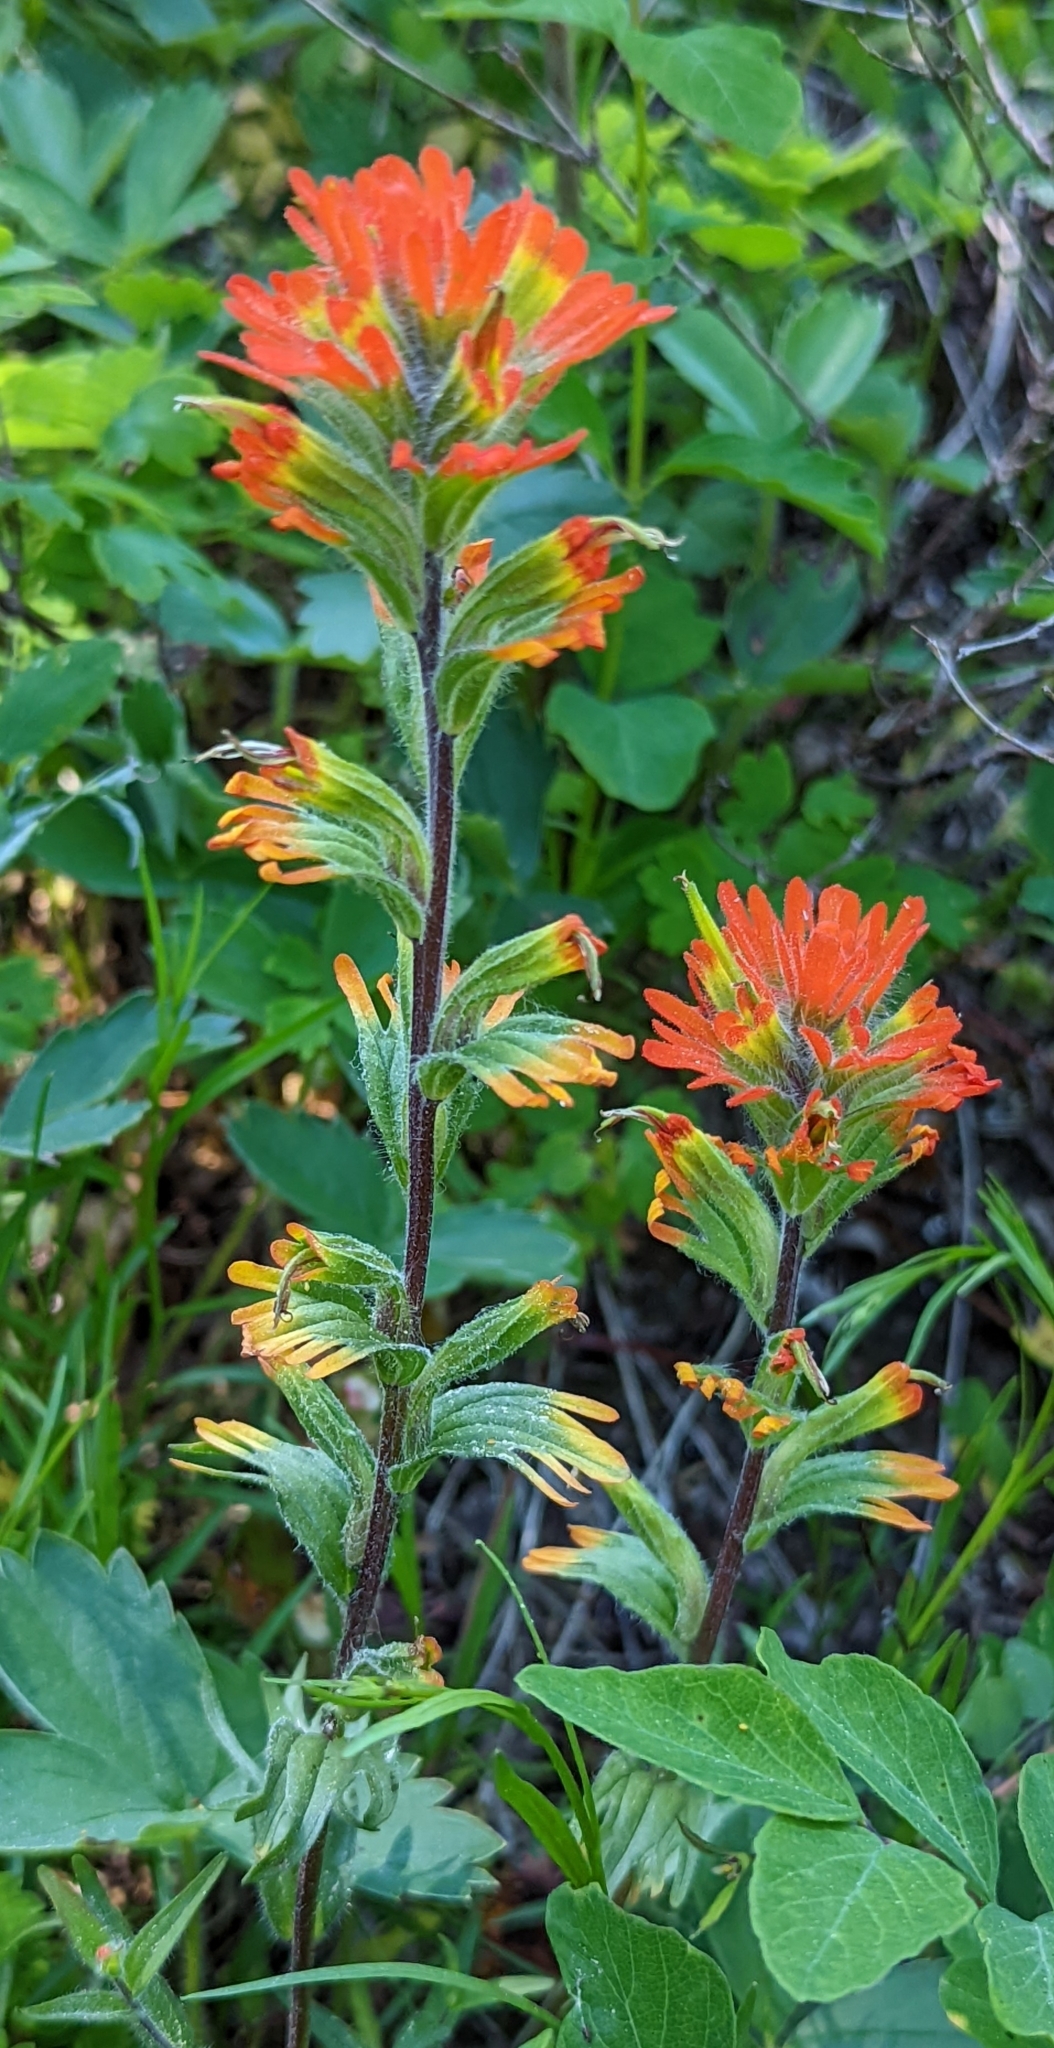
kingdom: Plantae
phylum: Tracheophyta
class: Magnoliopsida
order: Lamiales
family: Orobanchaceae
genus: Castilleja
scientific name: Castilleja hispida
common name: Bristly paintbrush
